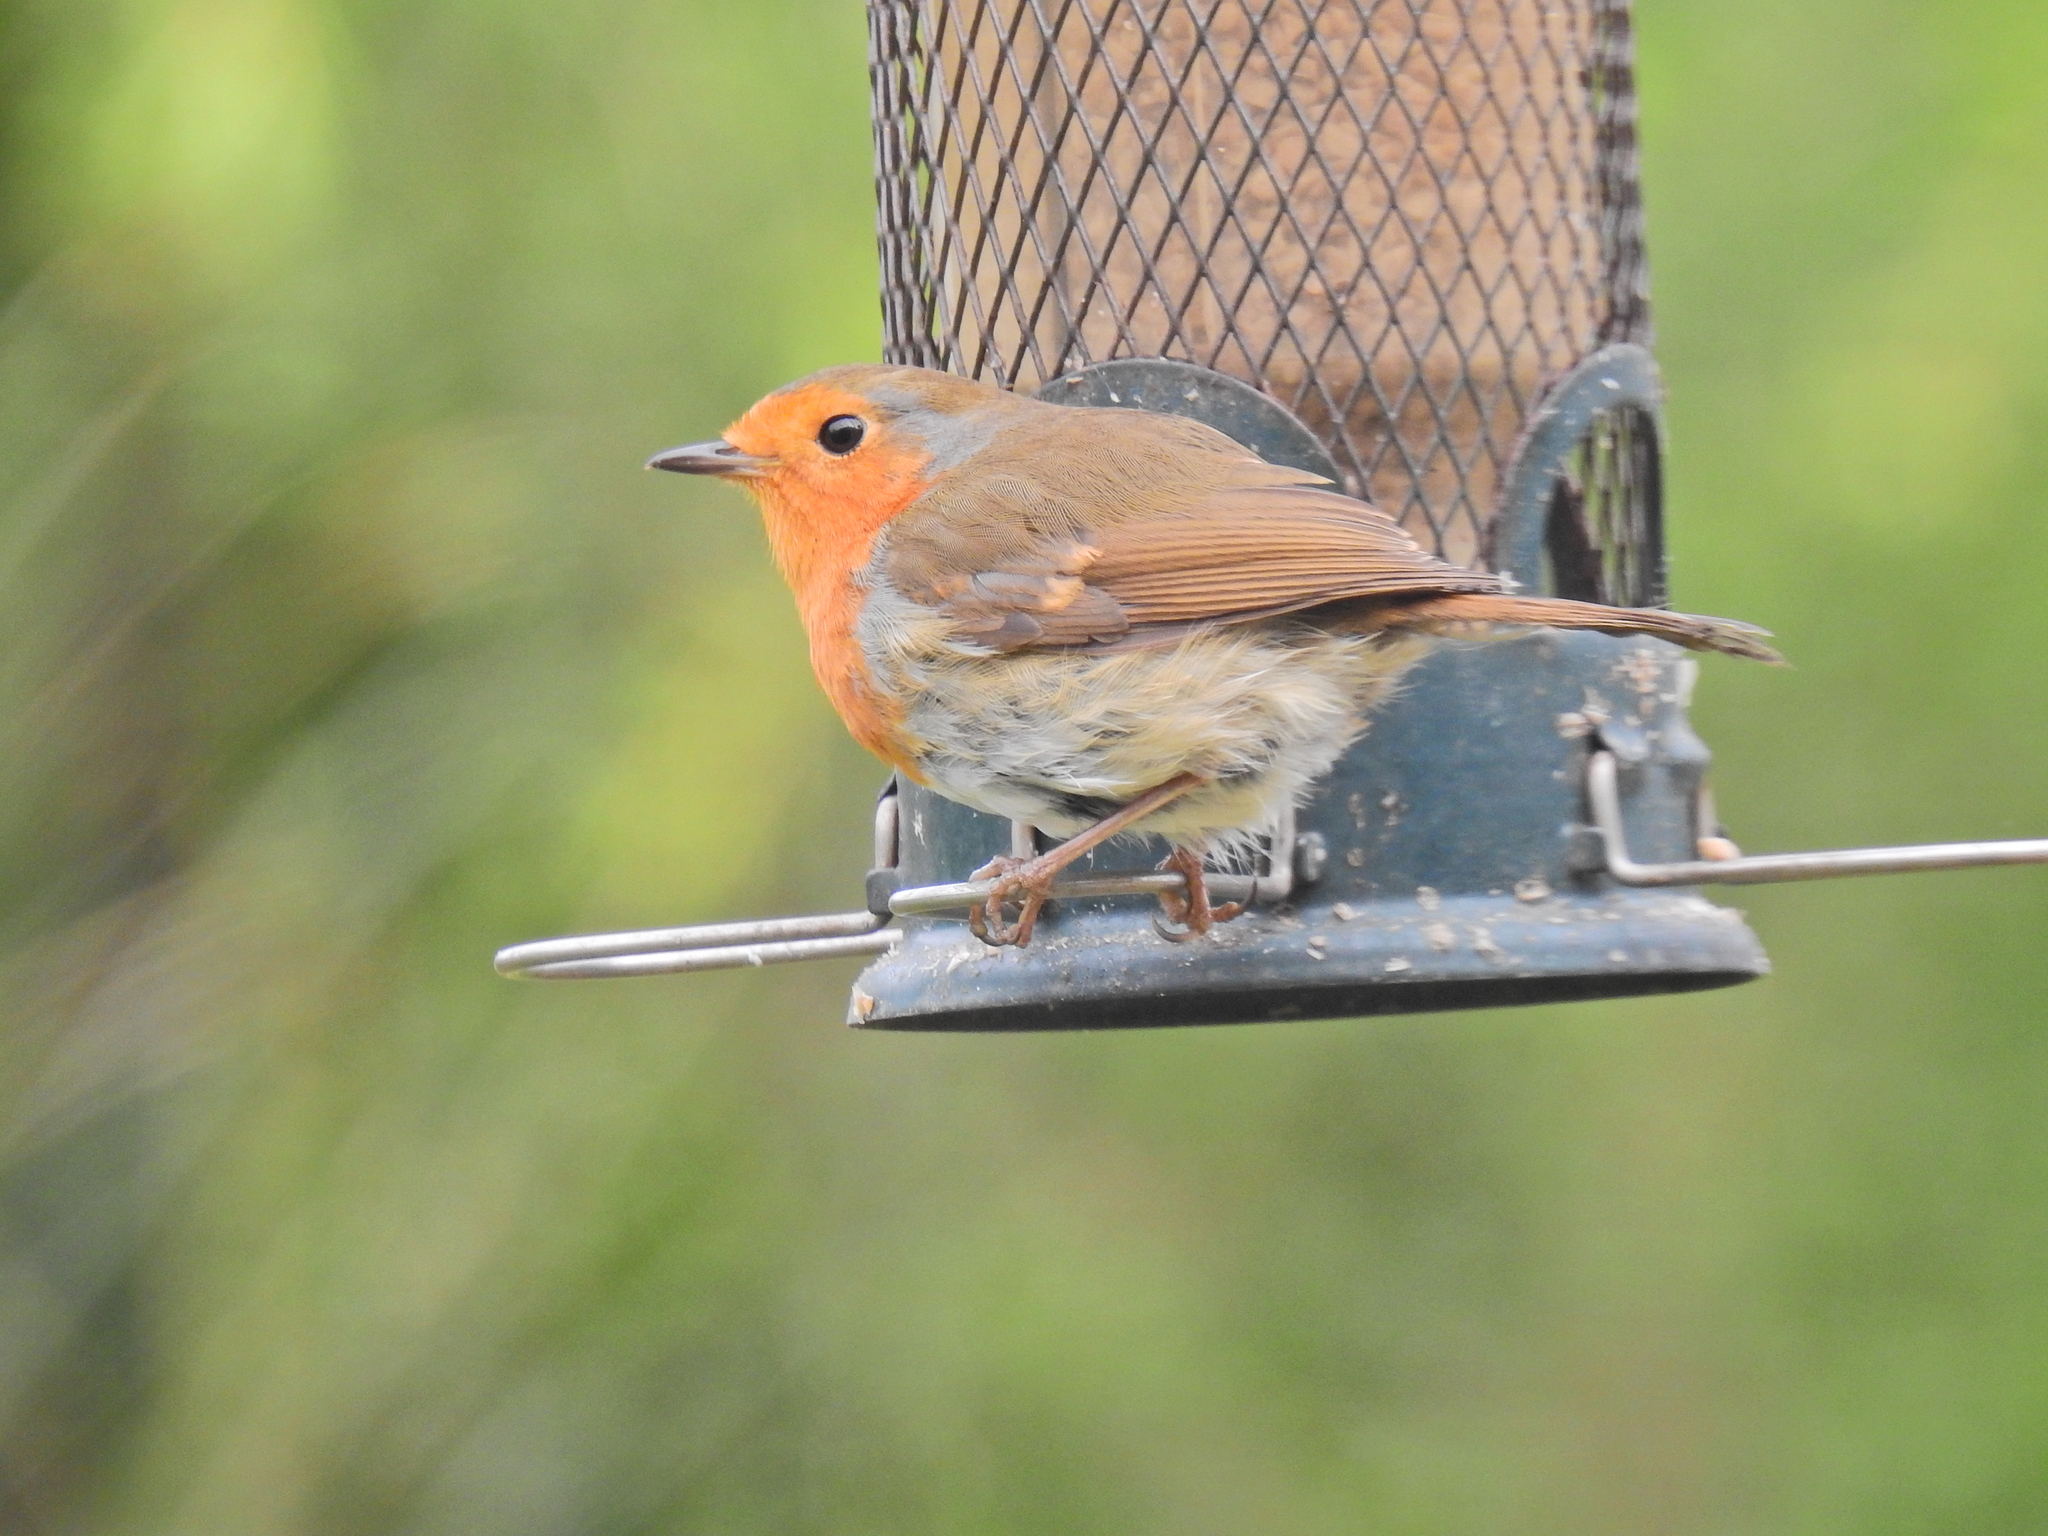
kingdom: Animalia
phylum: Chordata
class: Aves
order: Passeriformes
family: Muscicapidae
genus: Erithacus
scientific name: Erithacus rubecula
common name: European robin
